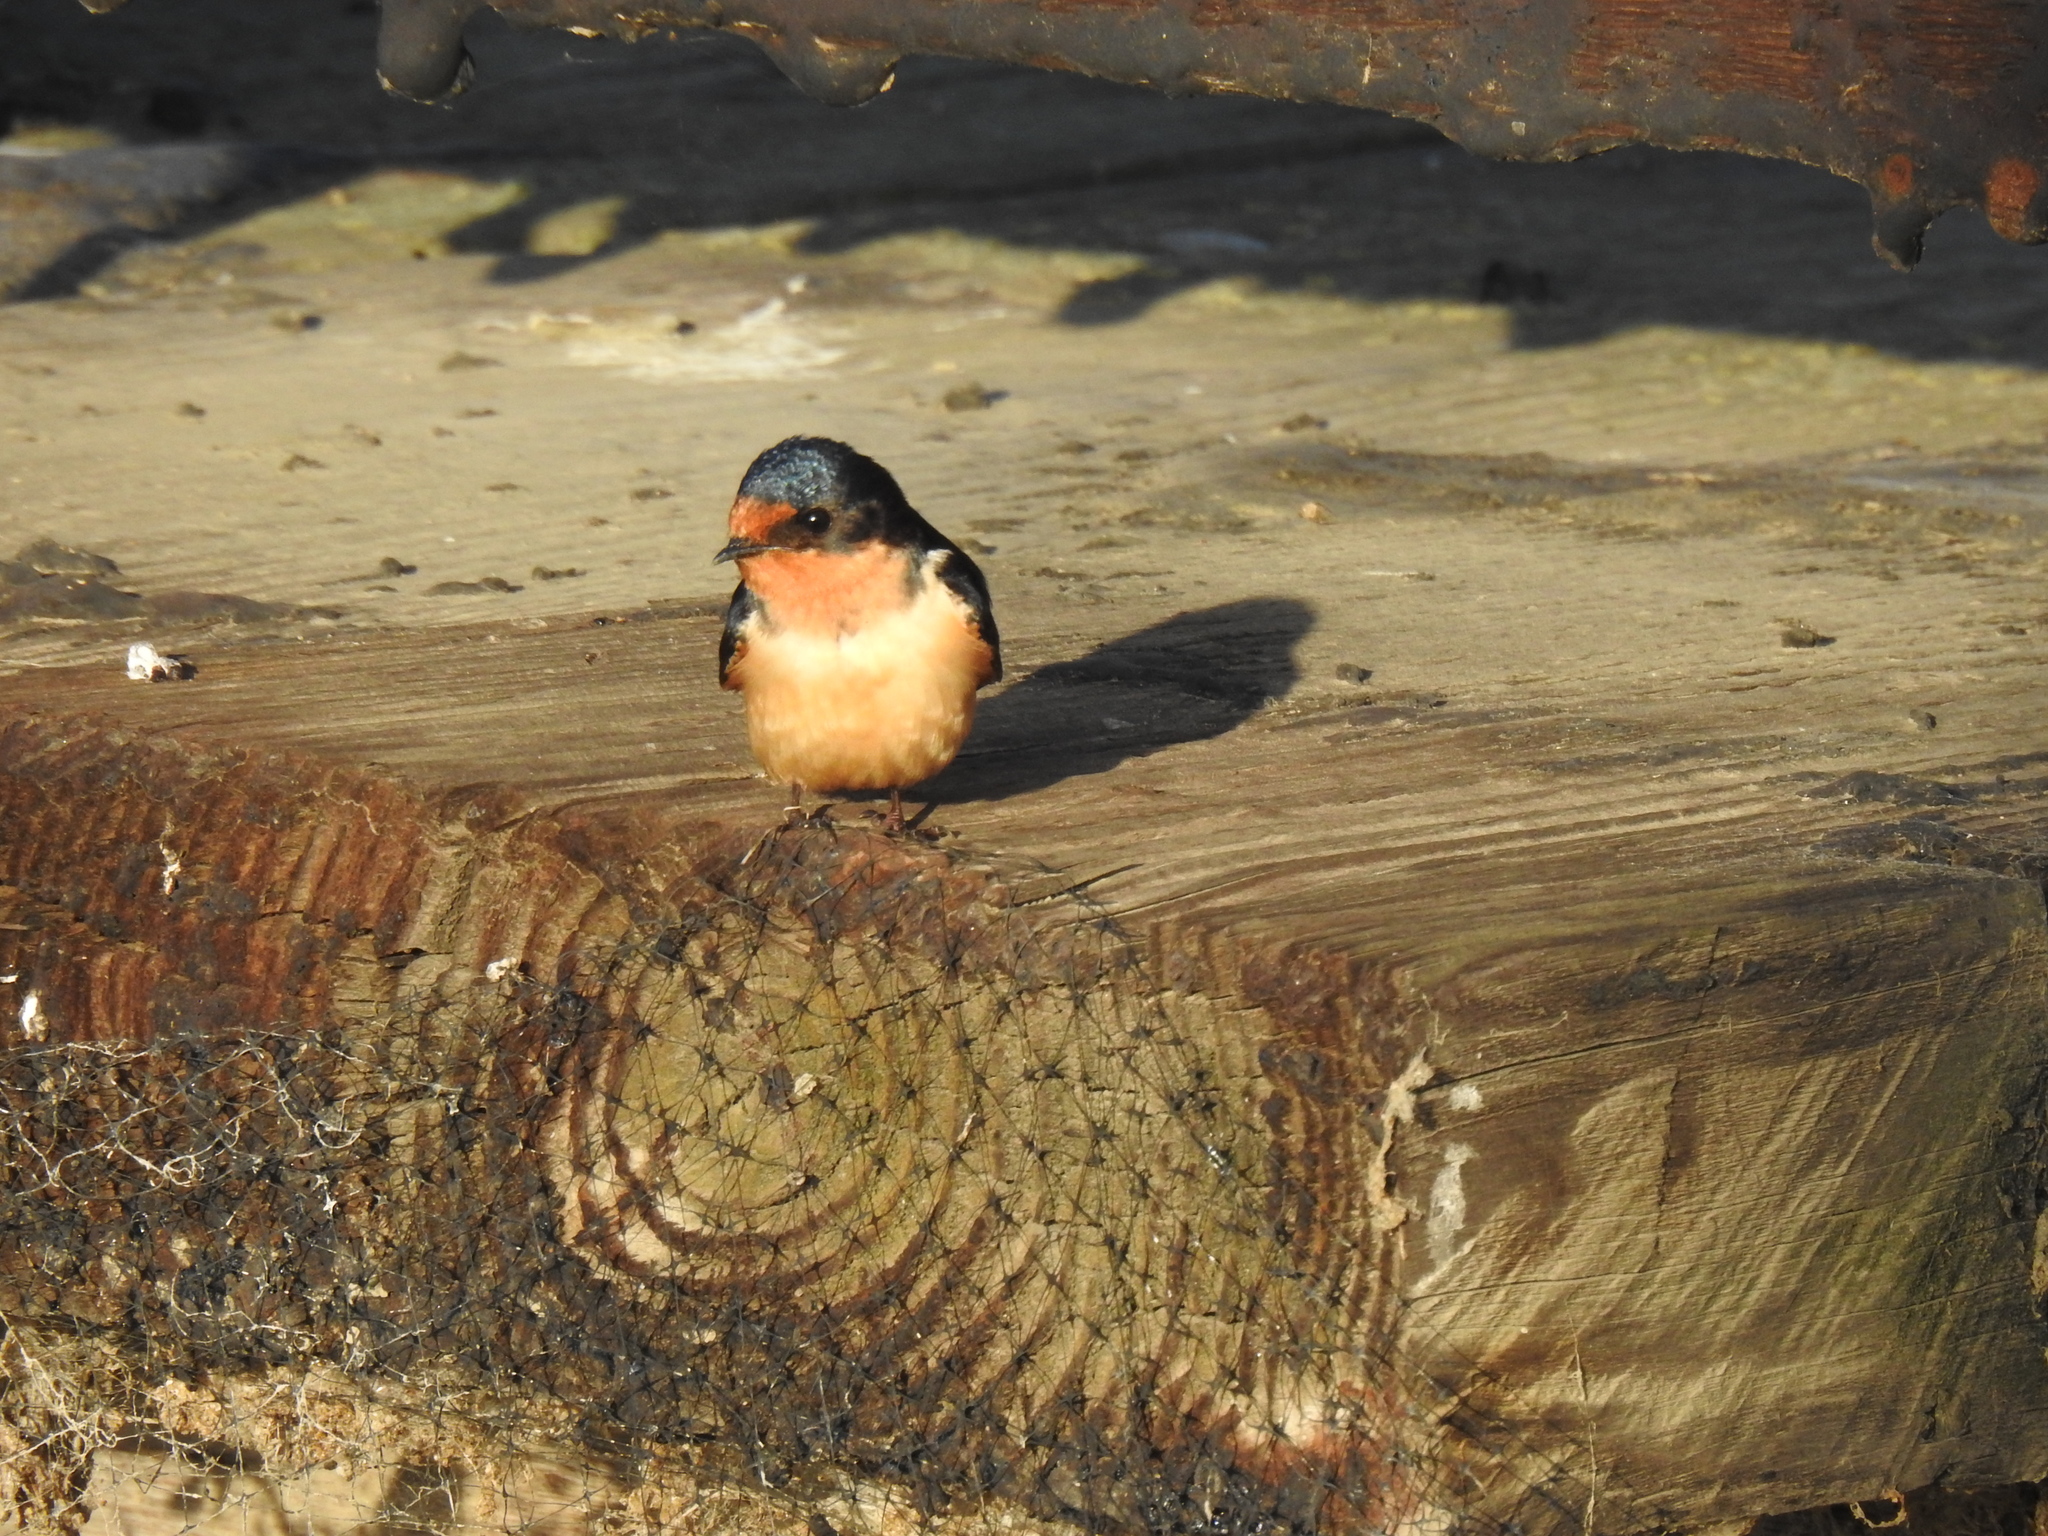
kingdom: Animalia
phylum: Chordata
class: Aves
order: Passeriformes
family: Hirundinidae
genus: Hirundo
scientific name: Hirundo rustica
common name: Barn swallow
